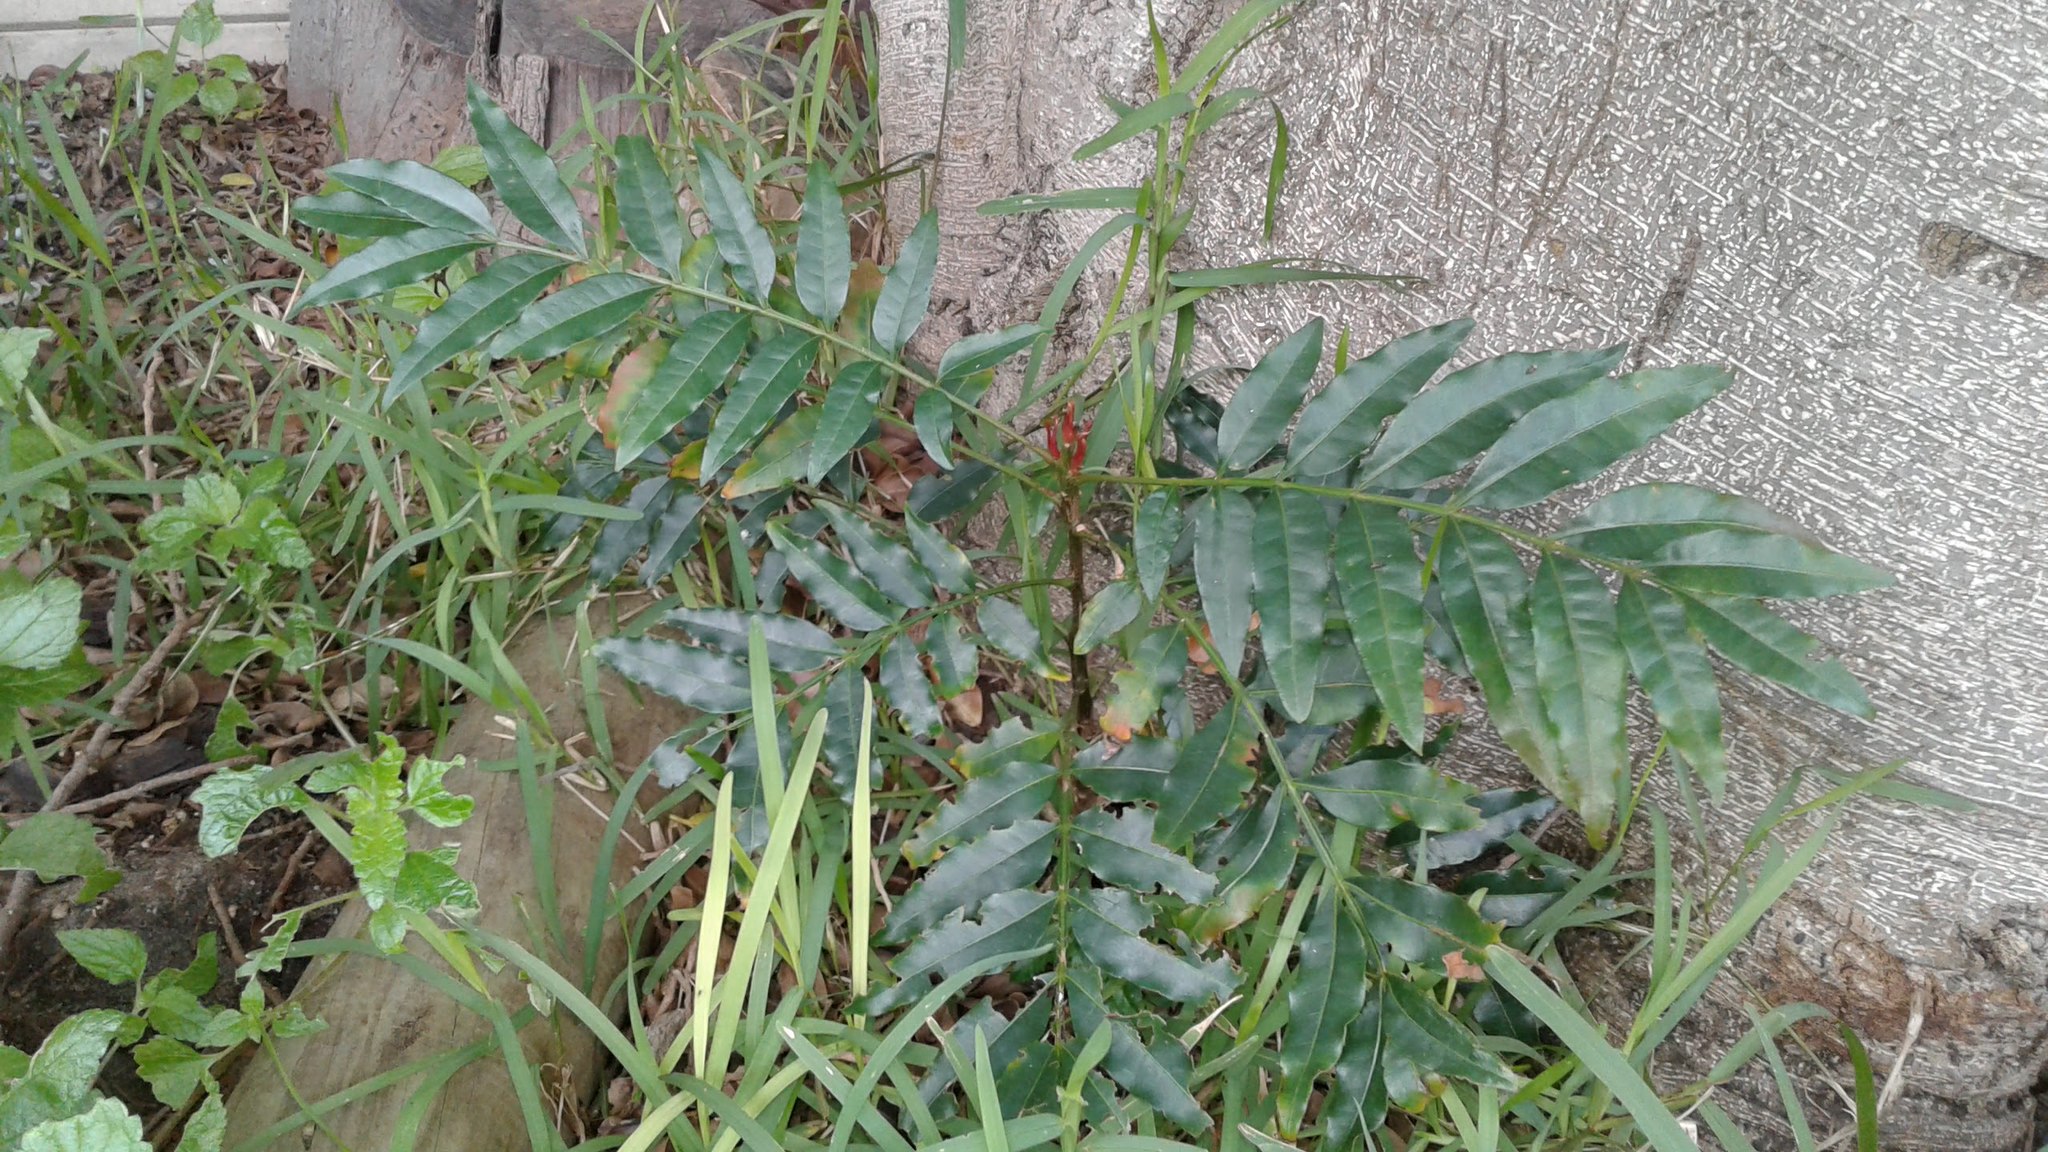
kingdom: Plantae
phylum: Tracheophyta
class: Magnoliopsida
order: Sapindales
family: Meliaceae
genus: Ekebergia
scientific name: Ekebergia capensis
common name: Cape-ash
